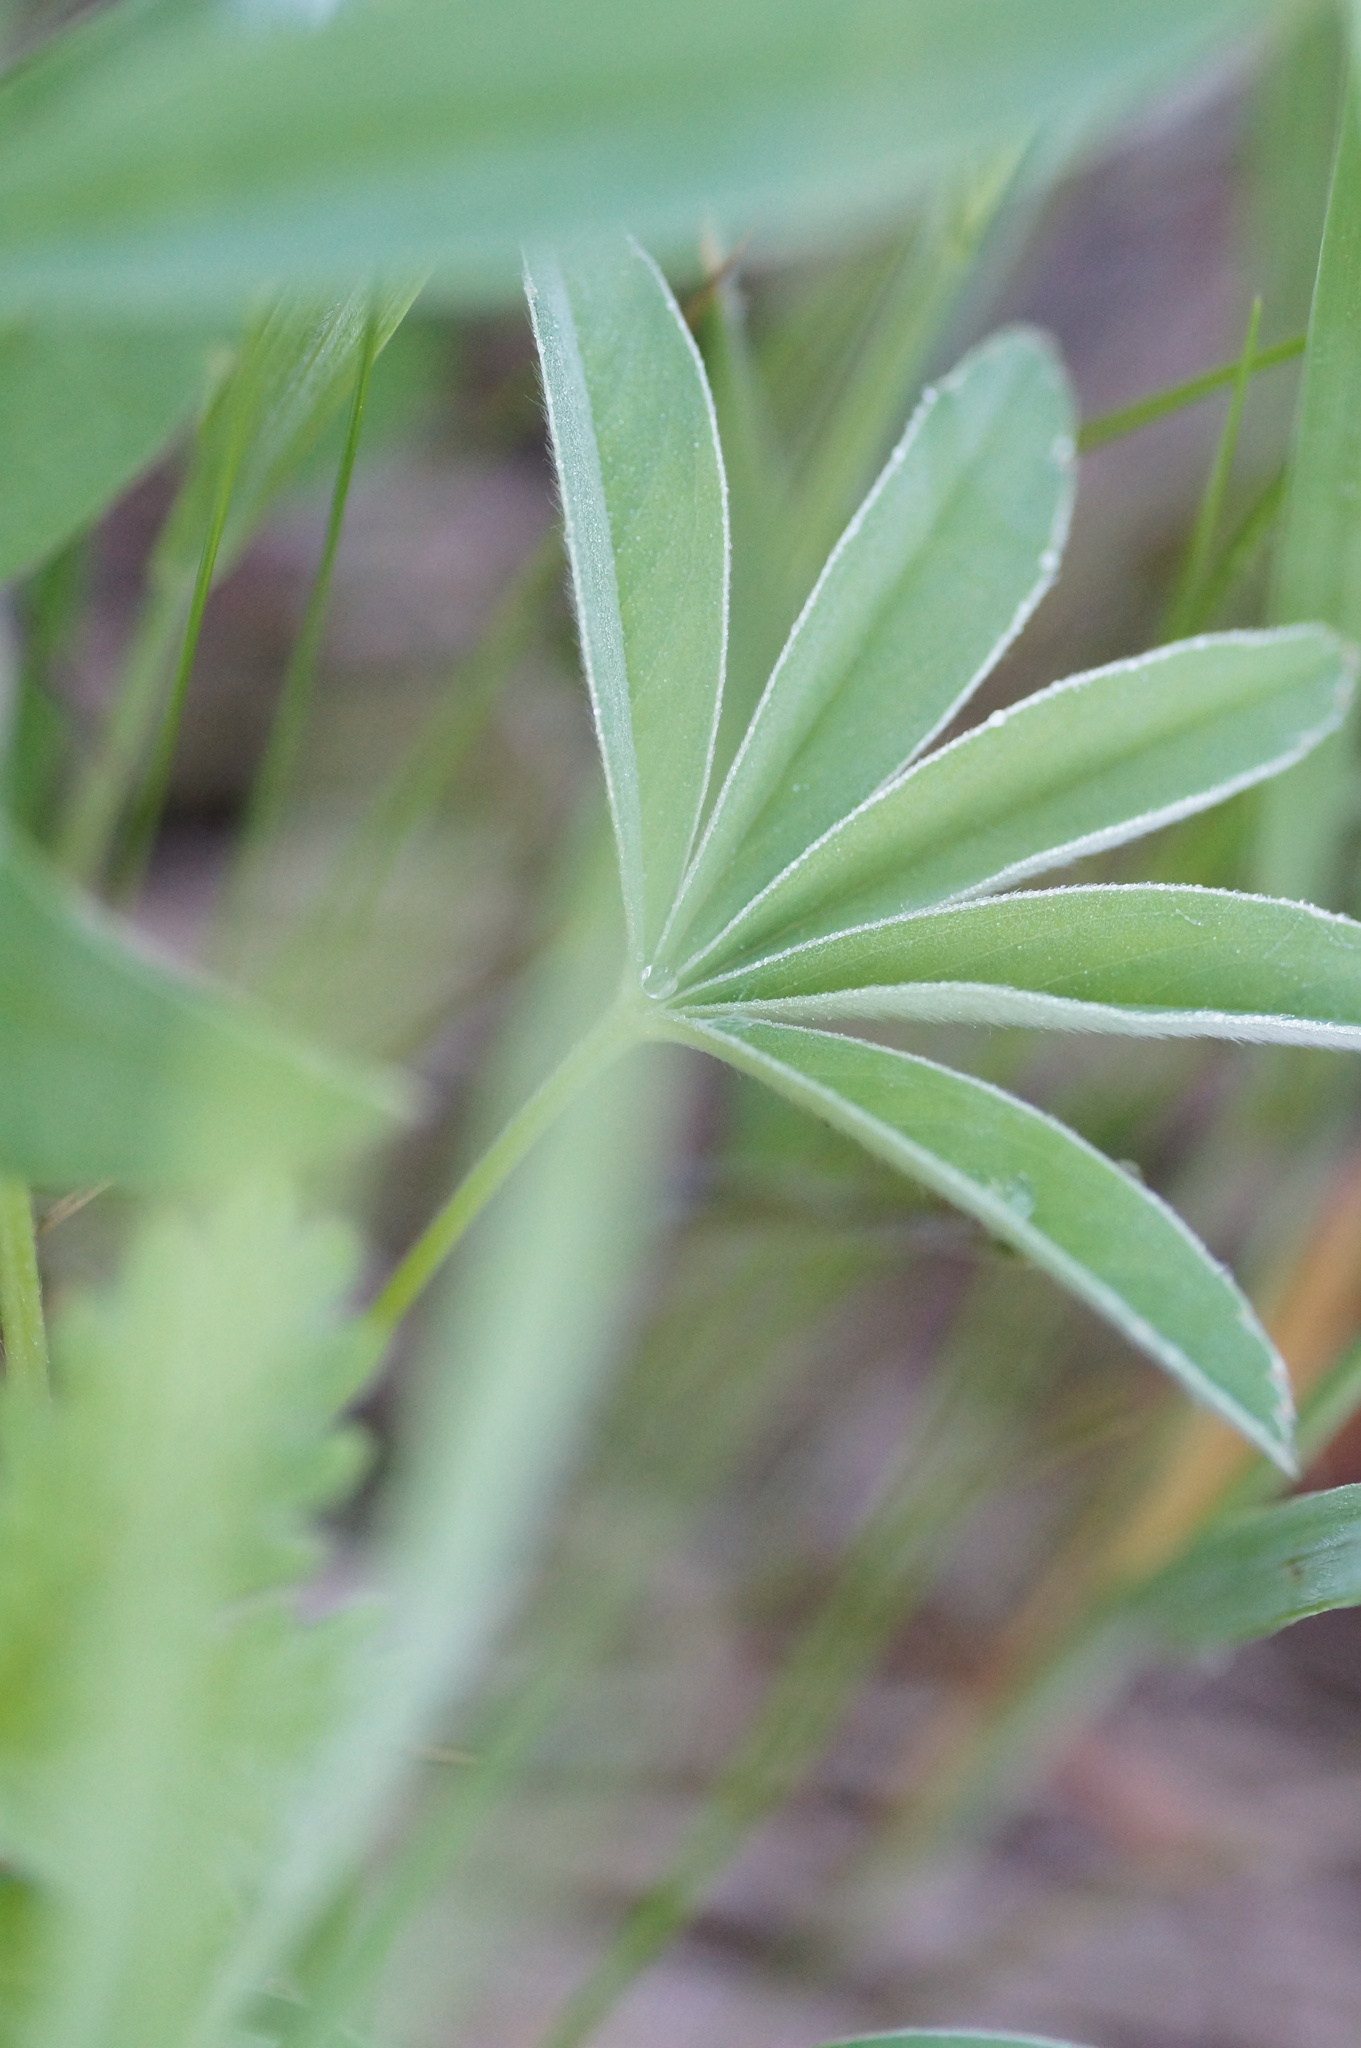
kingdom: Plantae
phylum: Tracheophyta
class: Magnoliopsida
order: Rosales
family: Rosaceae
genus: Potentilla
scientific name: Potentilla alba
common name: White cinquefoil
